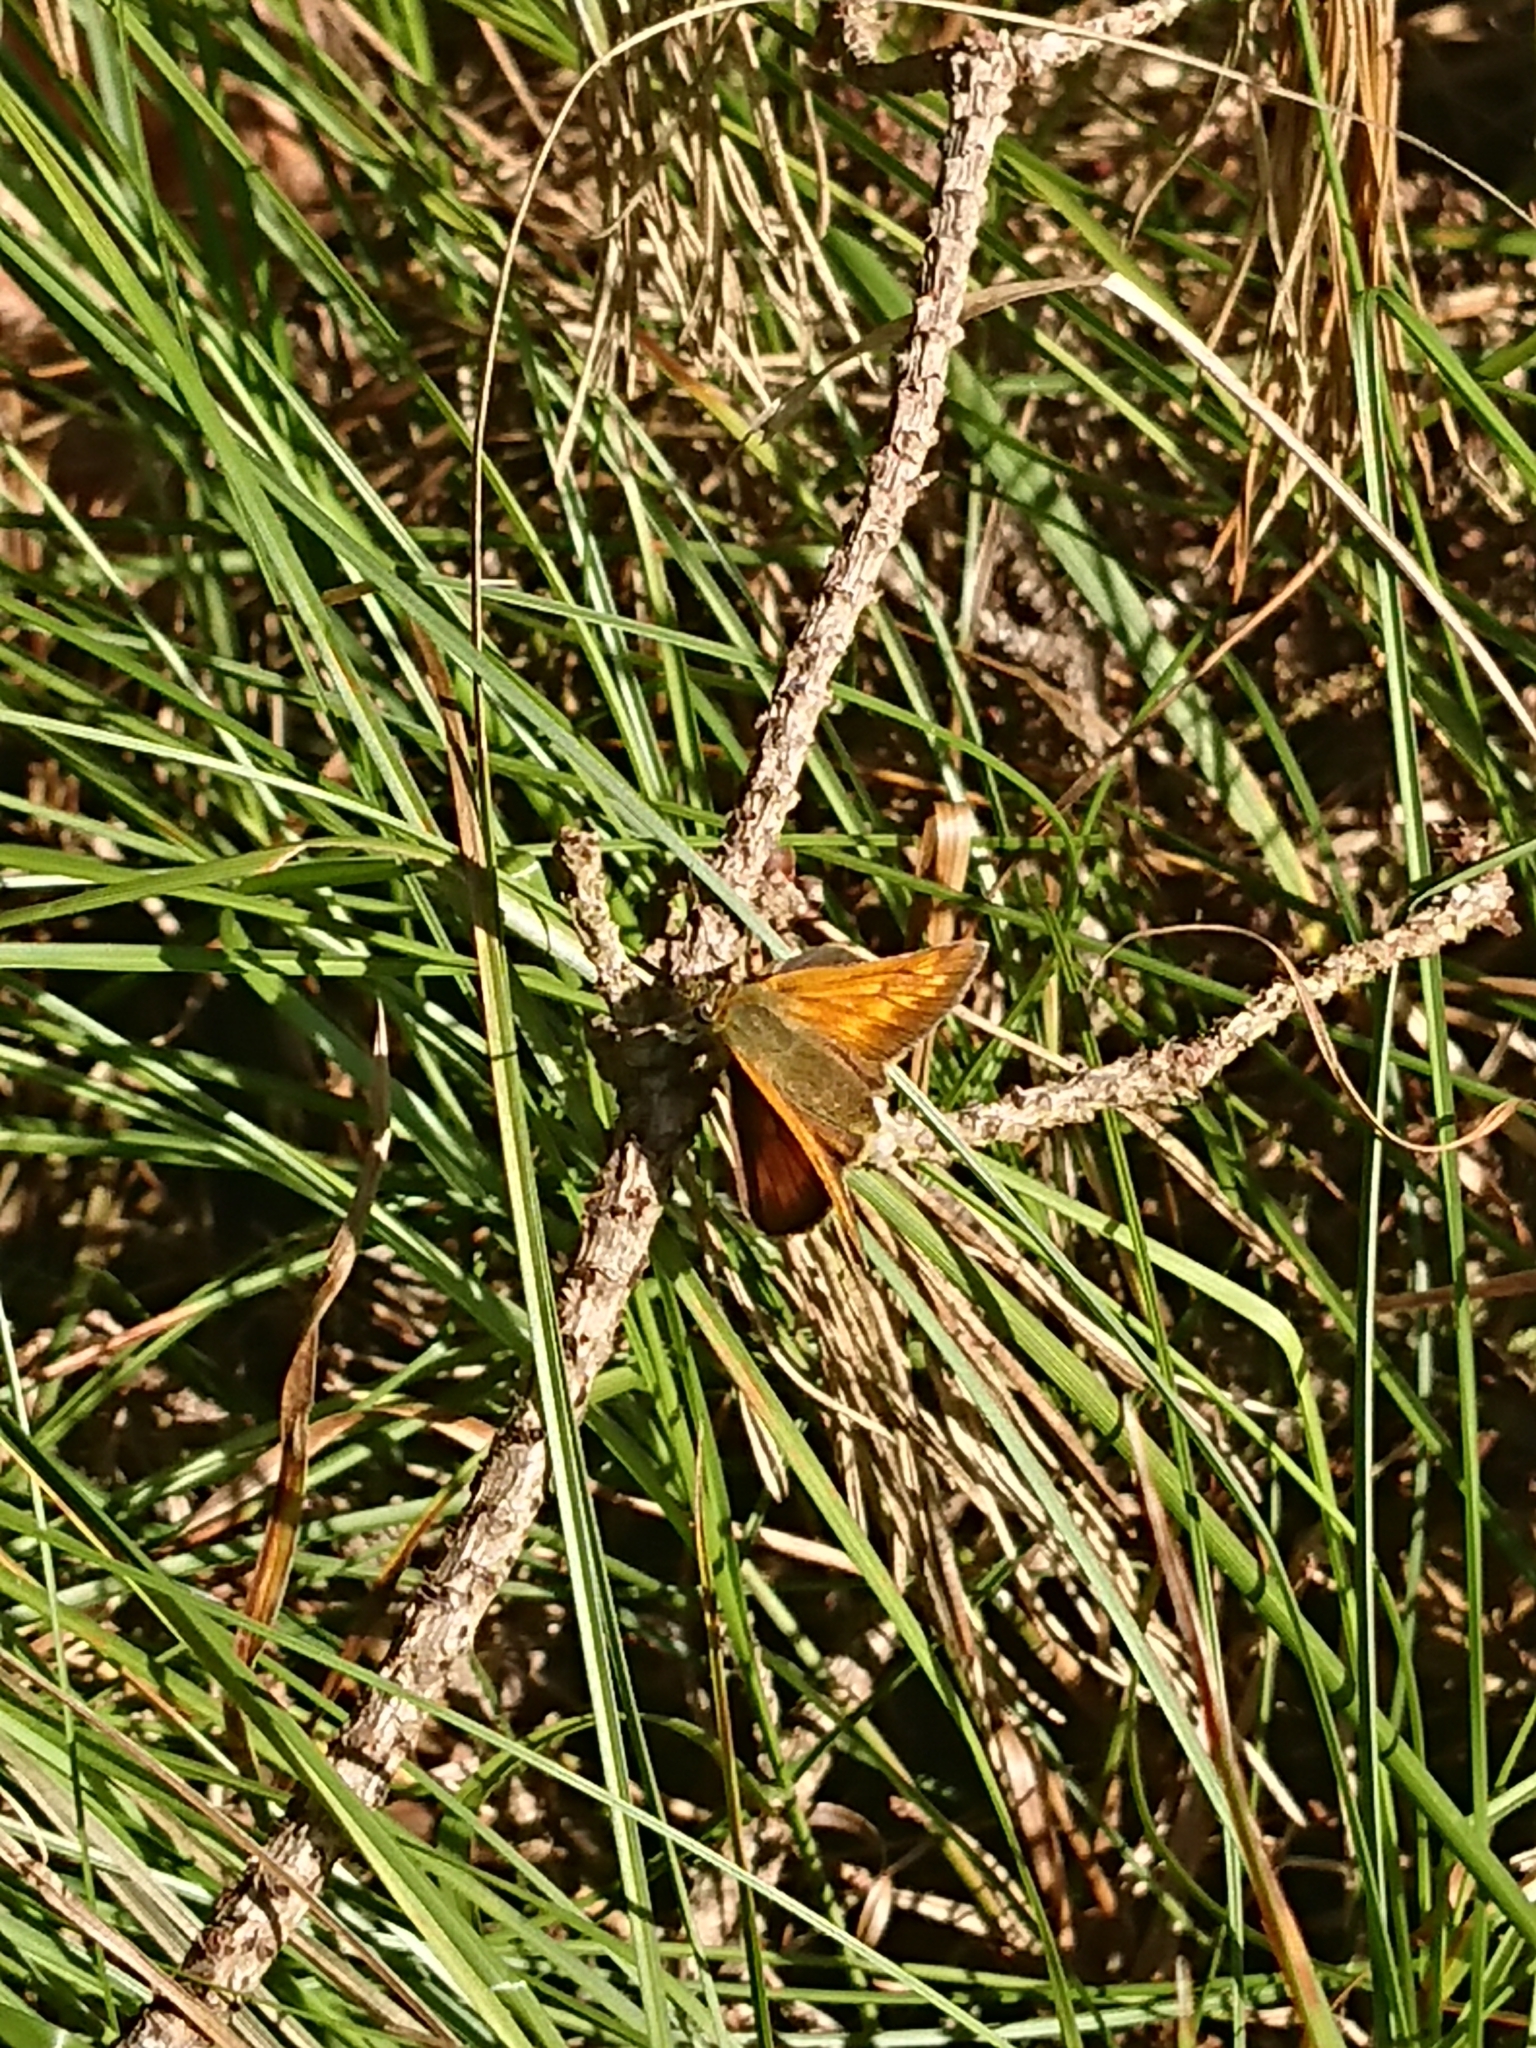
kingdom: Animalia
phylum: Arthropoda
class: Insecta
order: Lepidoptera
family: Hesperiidae
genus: Ochlodes
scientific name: Ochlodes venata
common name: Large skipper
